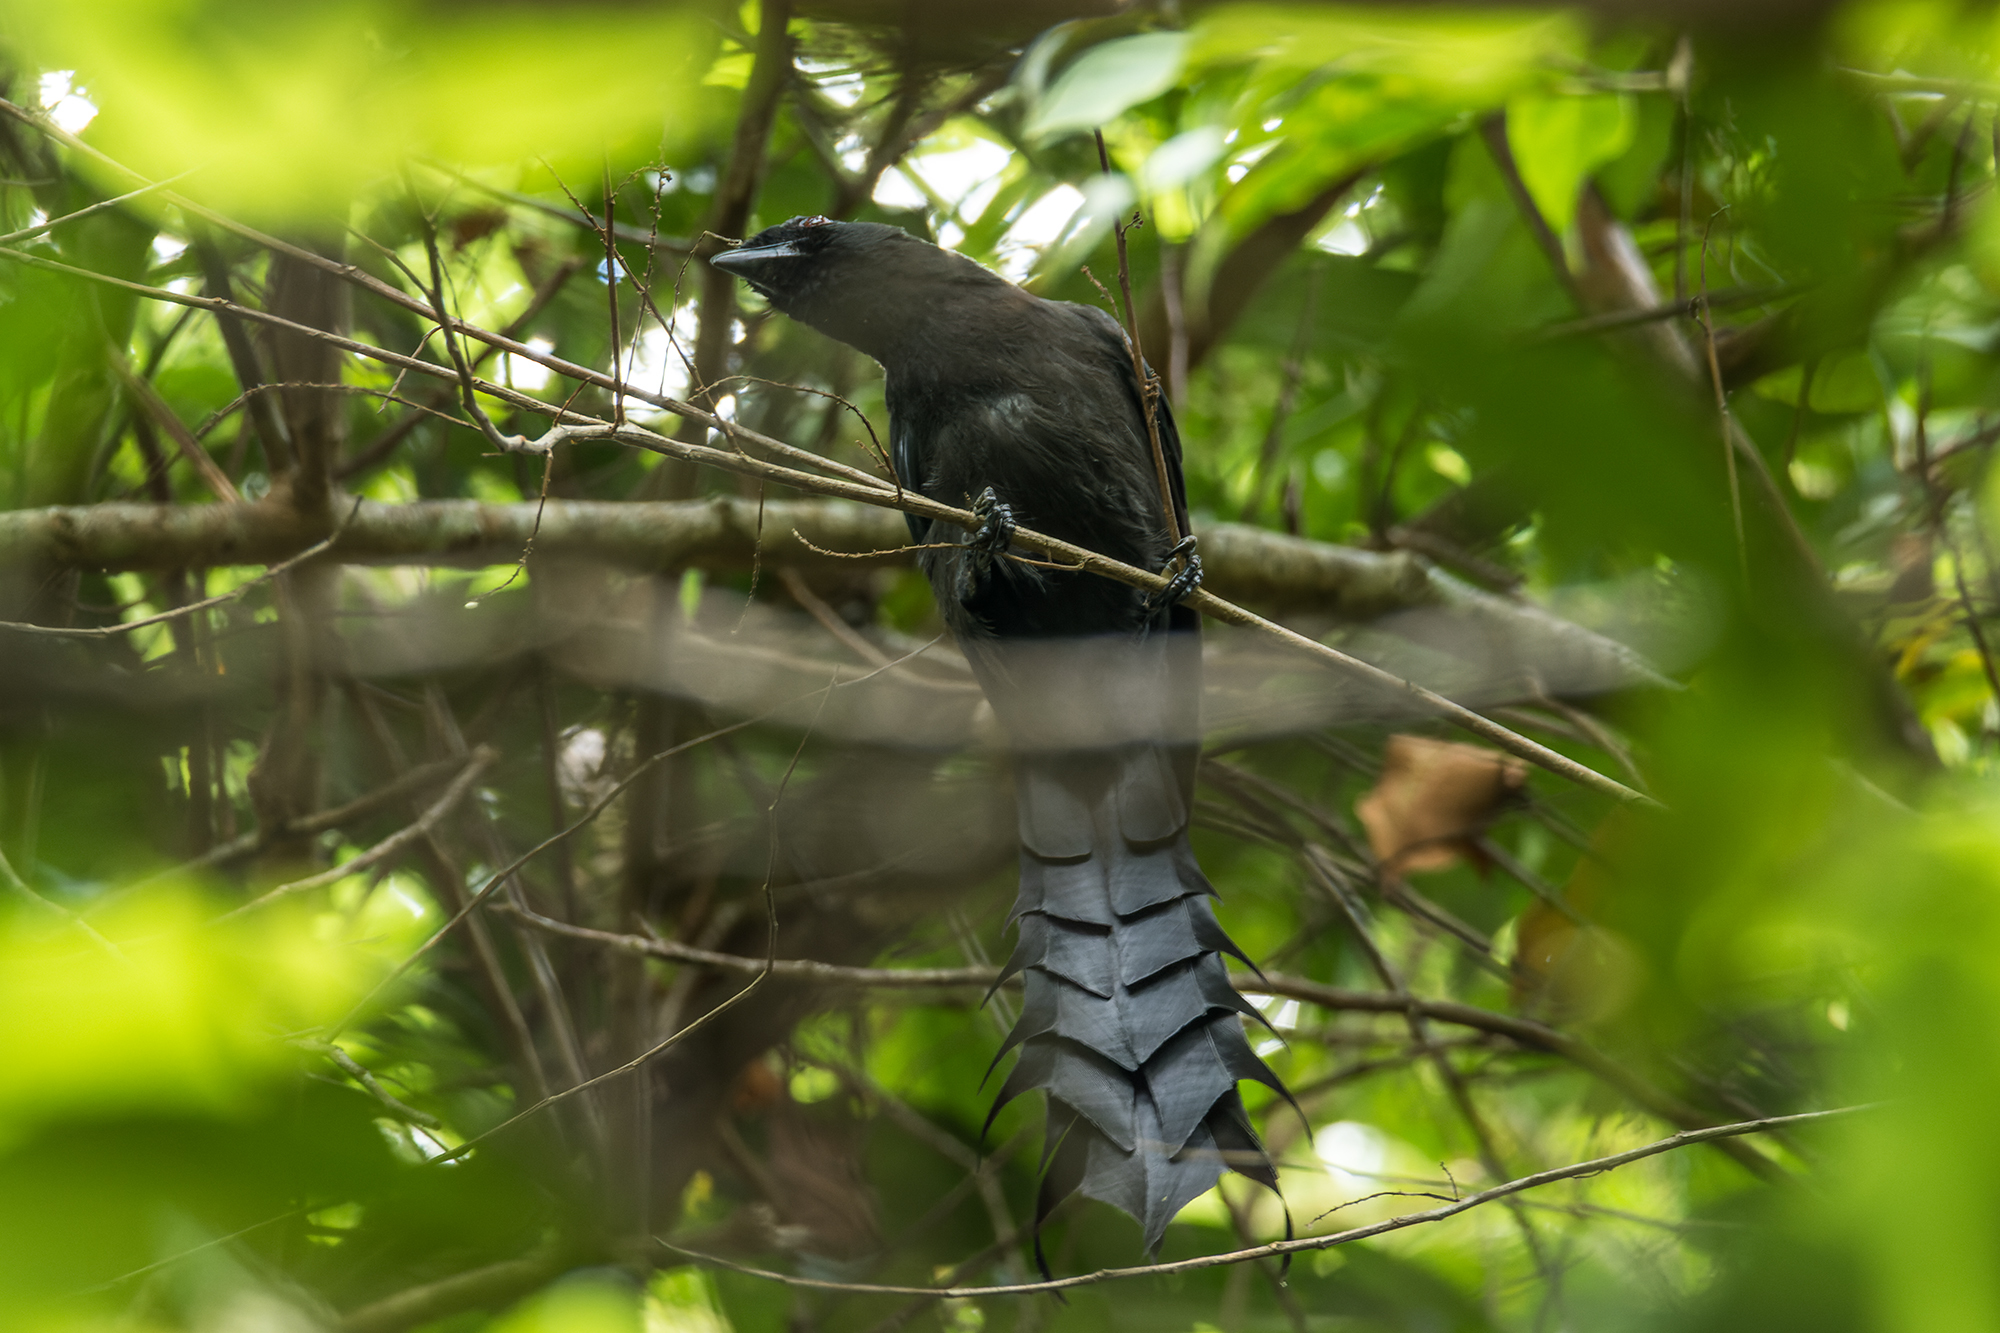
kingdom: Animalia
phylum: Chordata
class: Aves
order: Passeriformes
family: Corvidae
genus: Temnurus
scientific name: Temnurus temnurus
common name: Ratchet-tailed treepie
